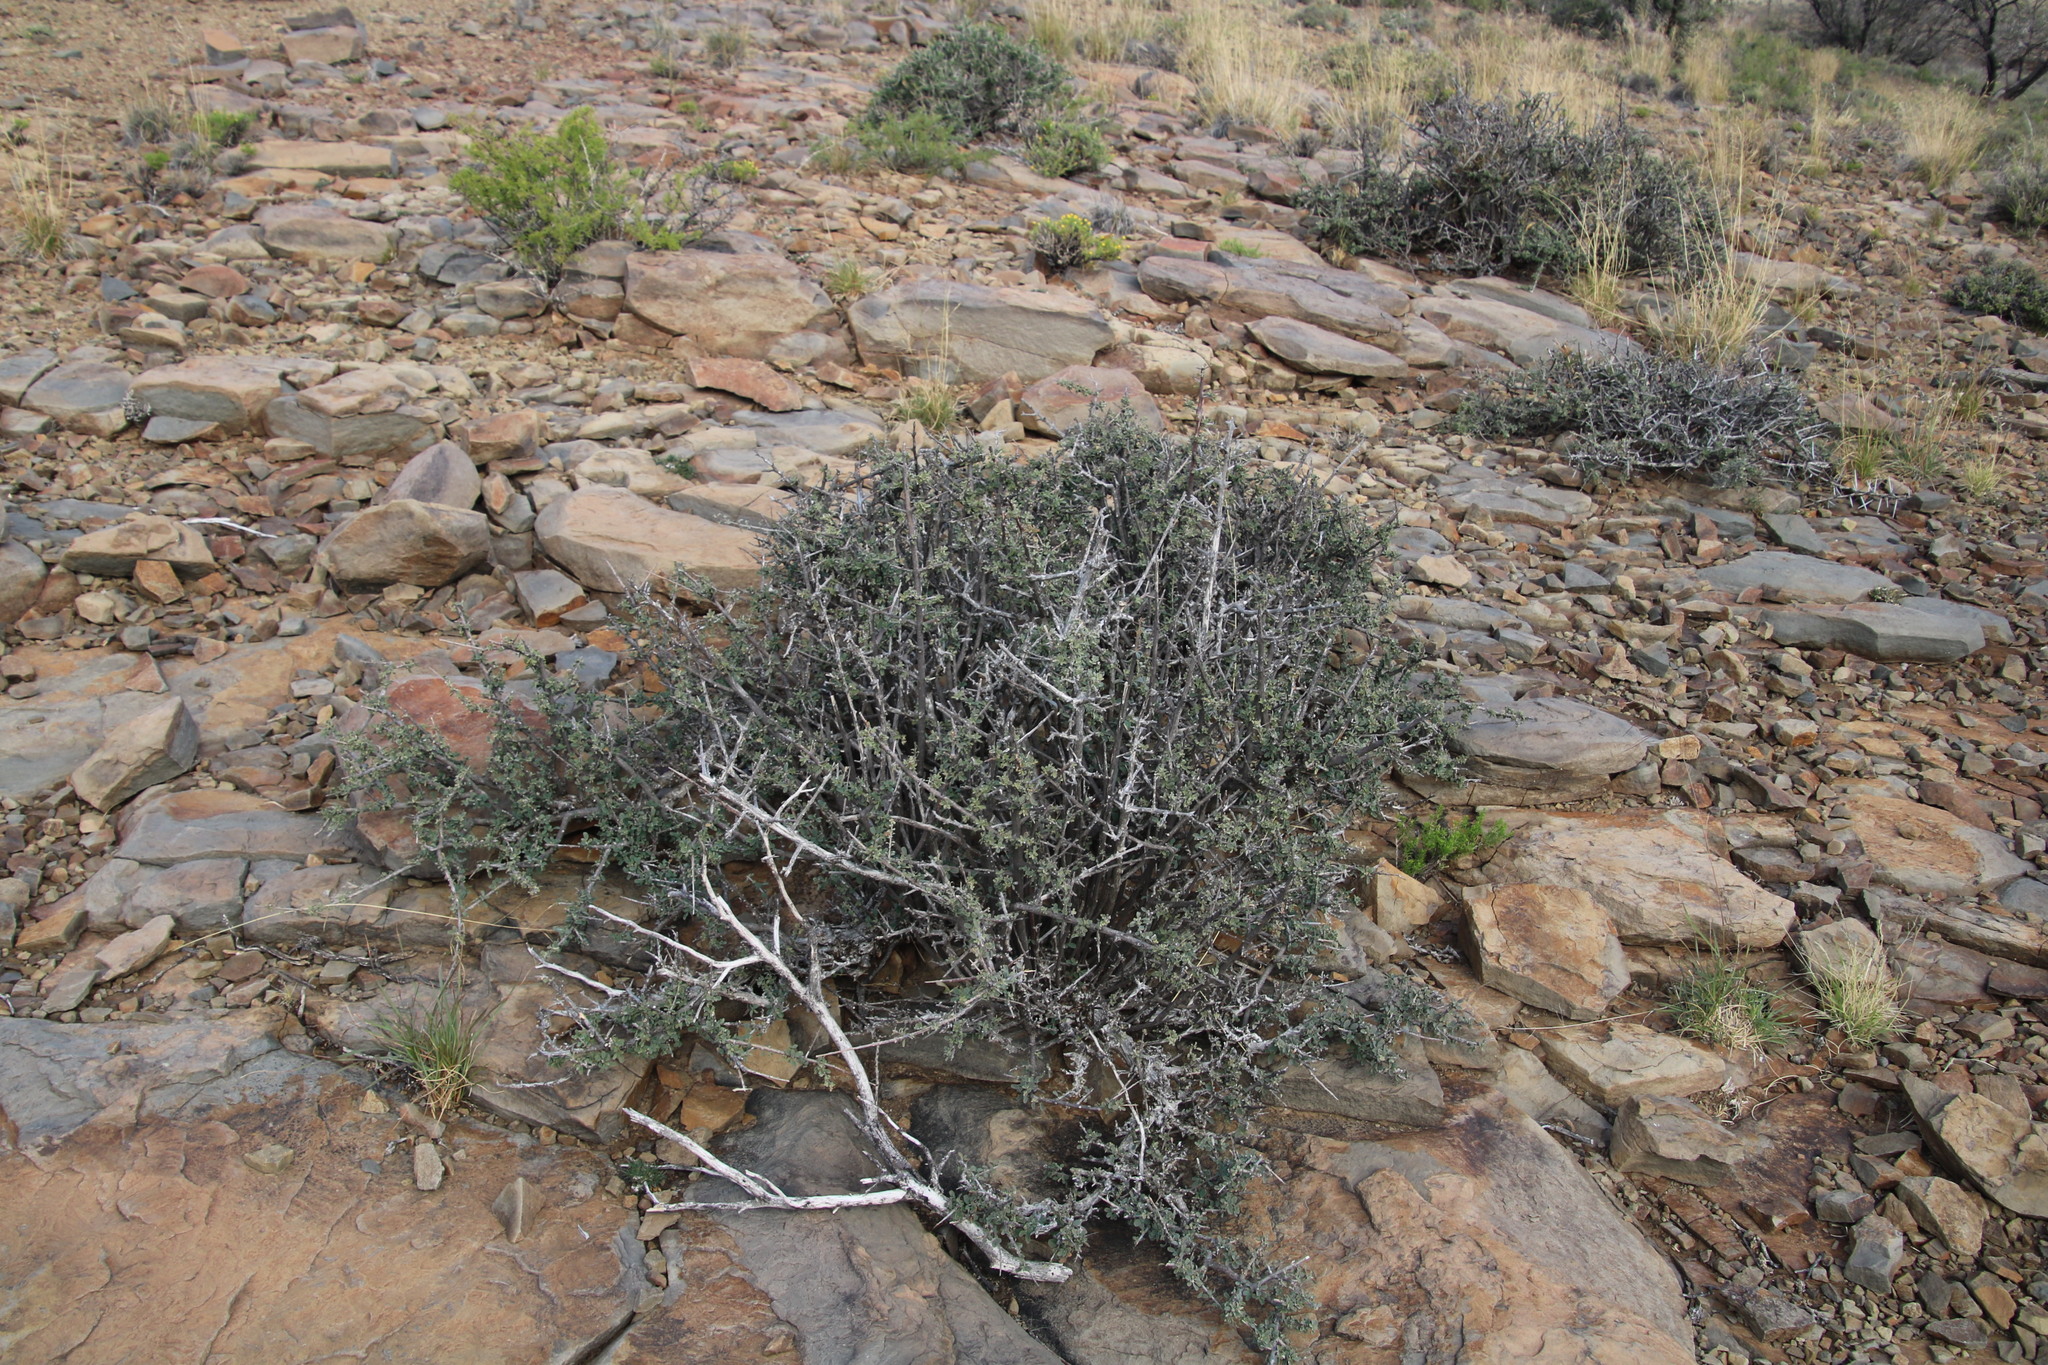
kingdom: Plantae
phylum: Tracheophyta
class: Magnoliopsida
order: Lamiales
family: Bignoniaceae
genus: Rhigozum
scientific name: Rhigozum obovatum
